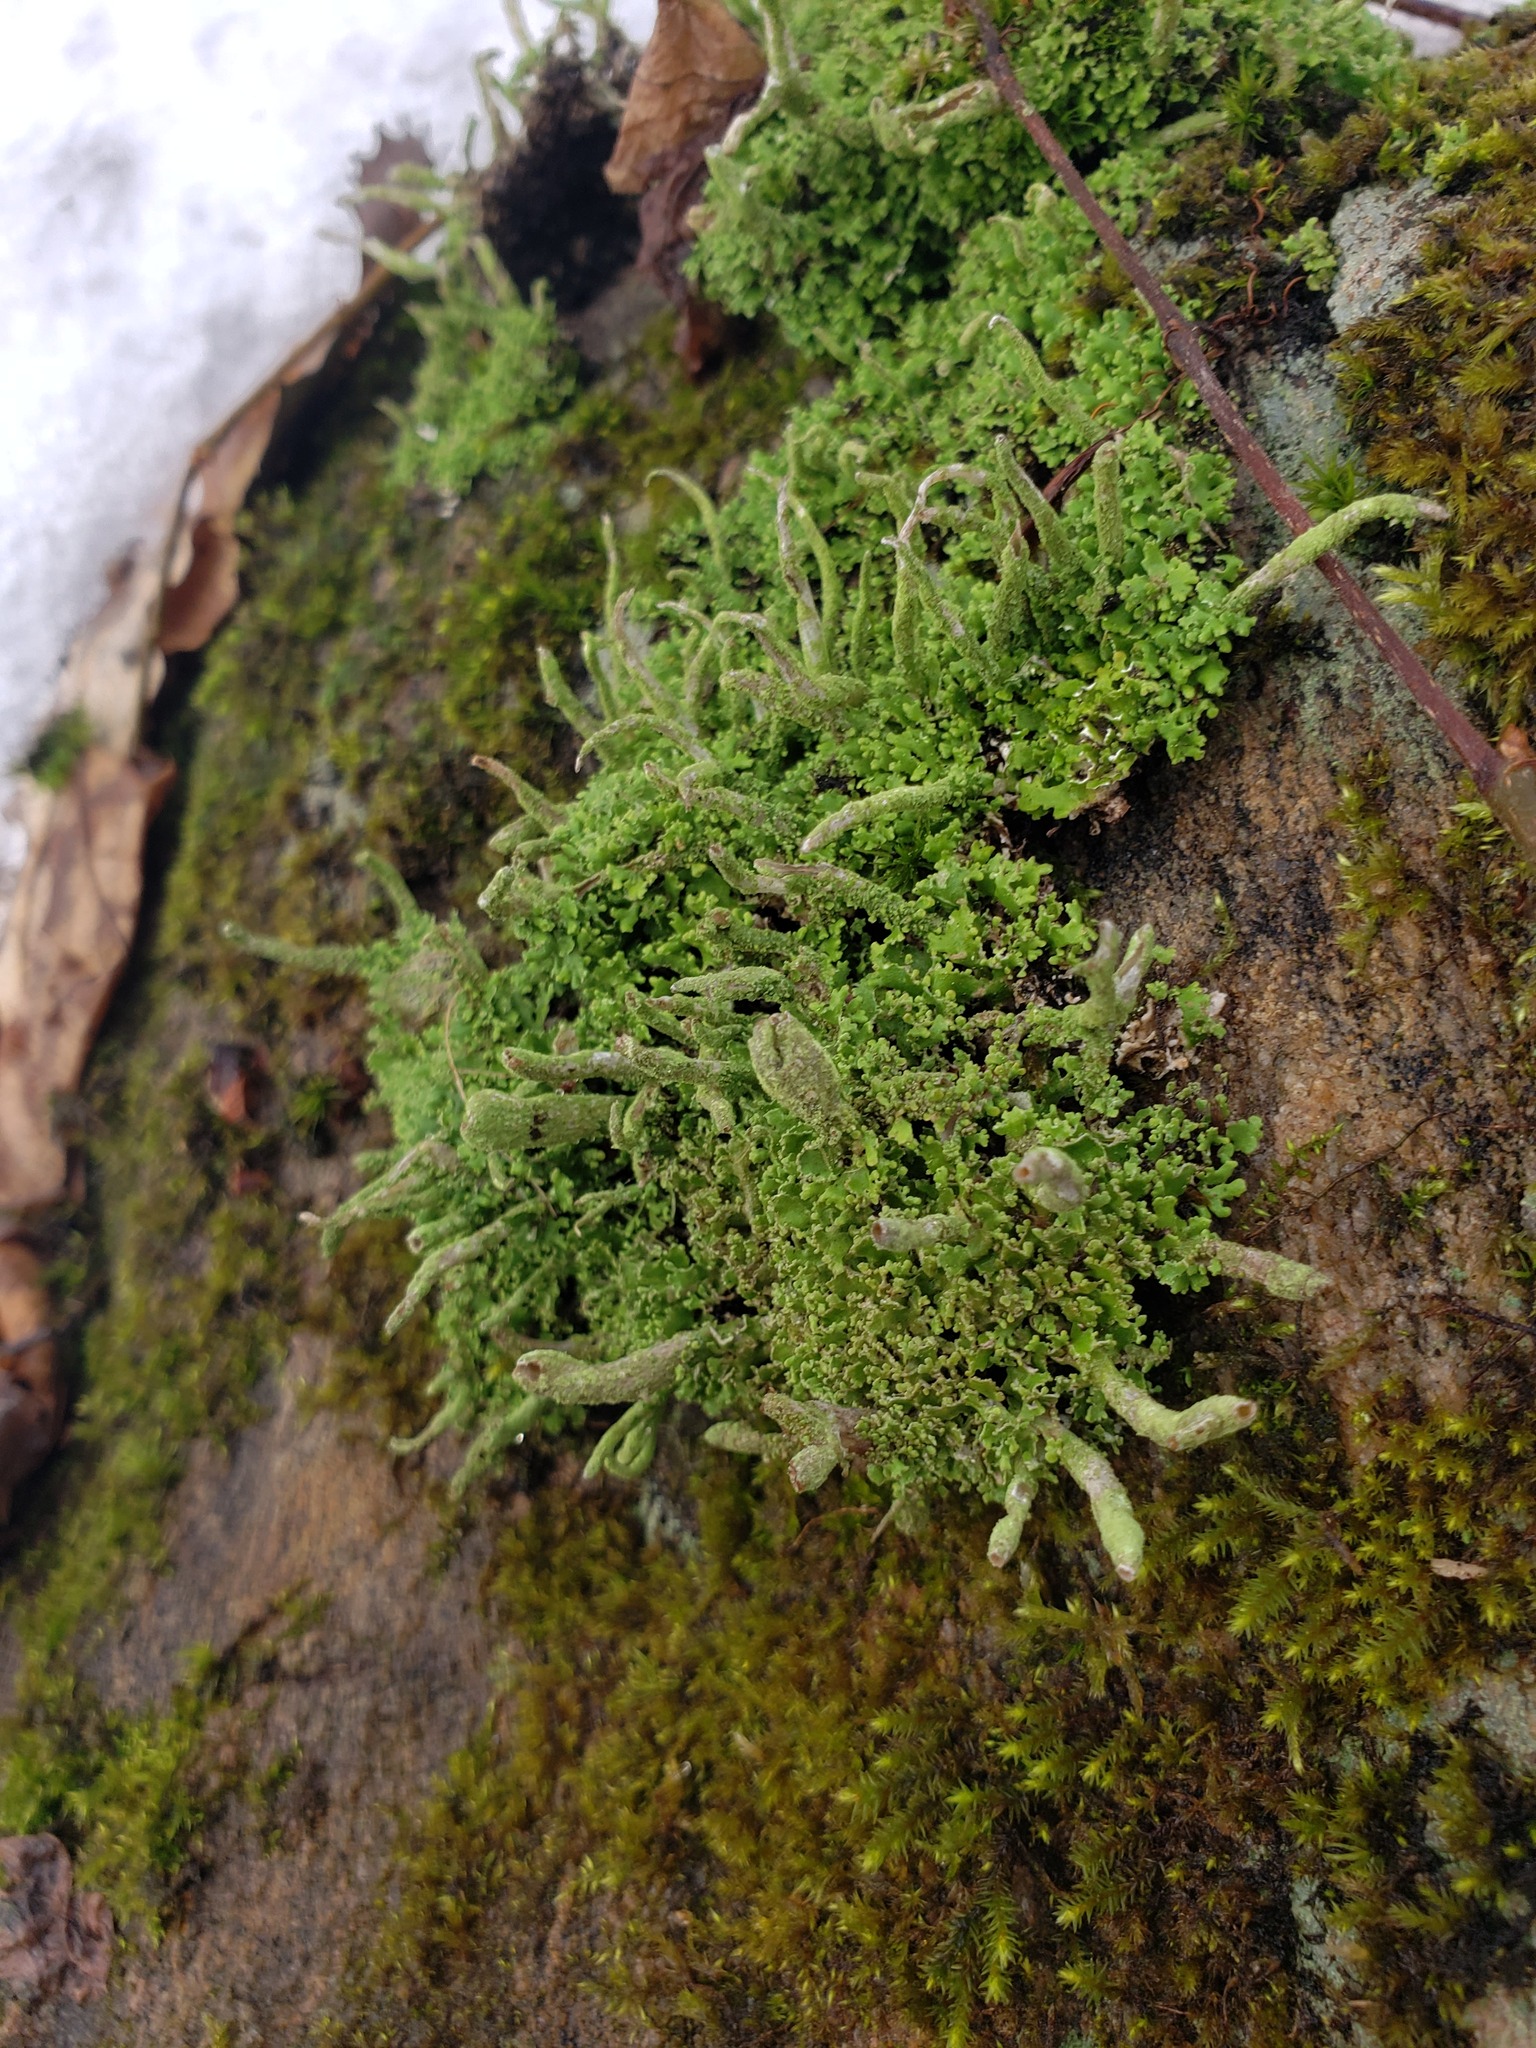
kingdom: Fungi
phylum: Ascomycota
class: Lecanoromycetes
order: Lecanorales
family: Cladoniaceae
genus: Cladonia
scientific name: Cladonia coniocraea
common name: Common powderhorn
